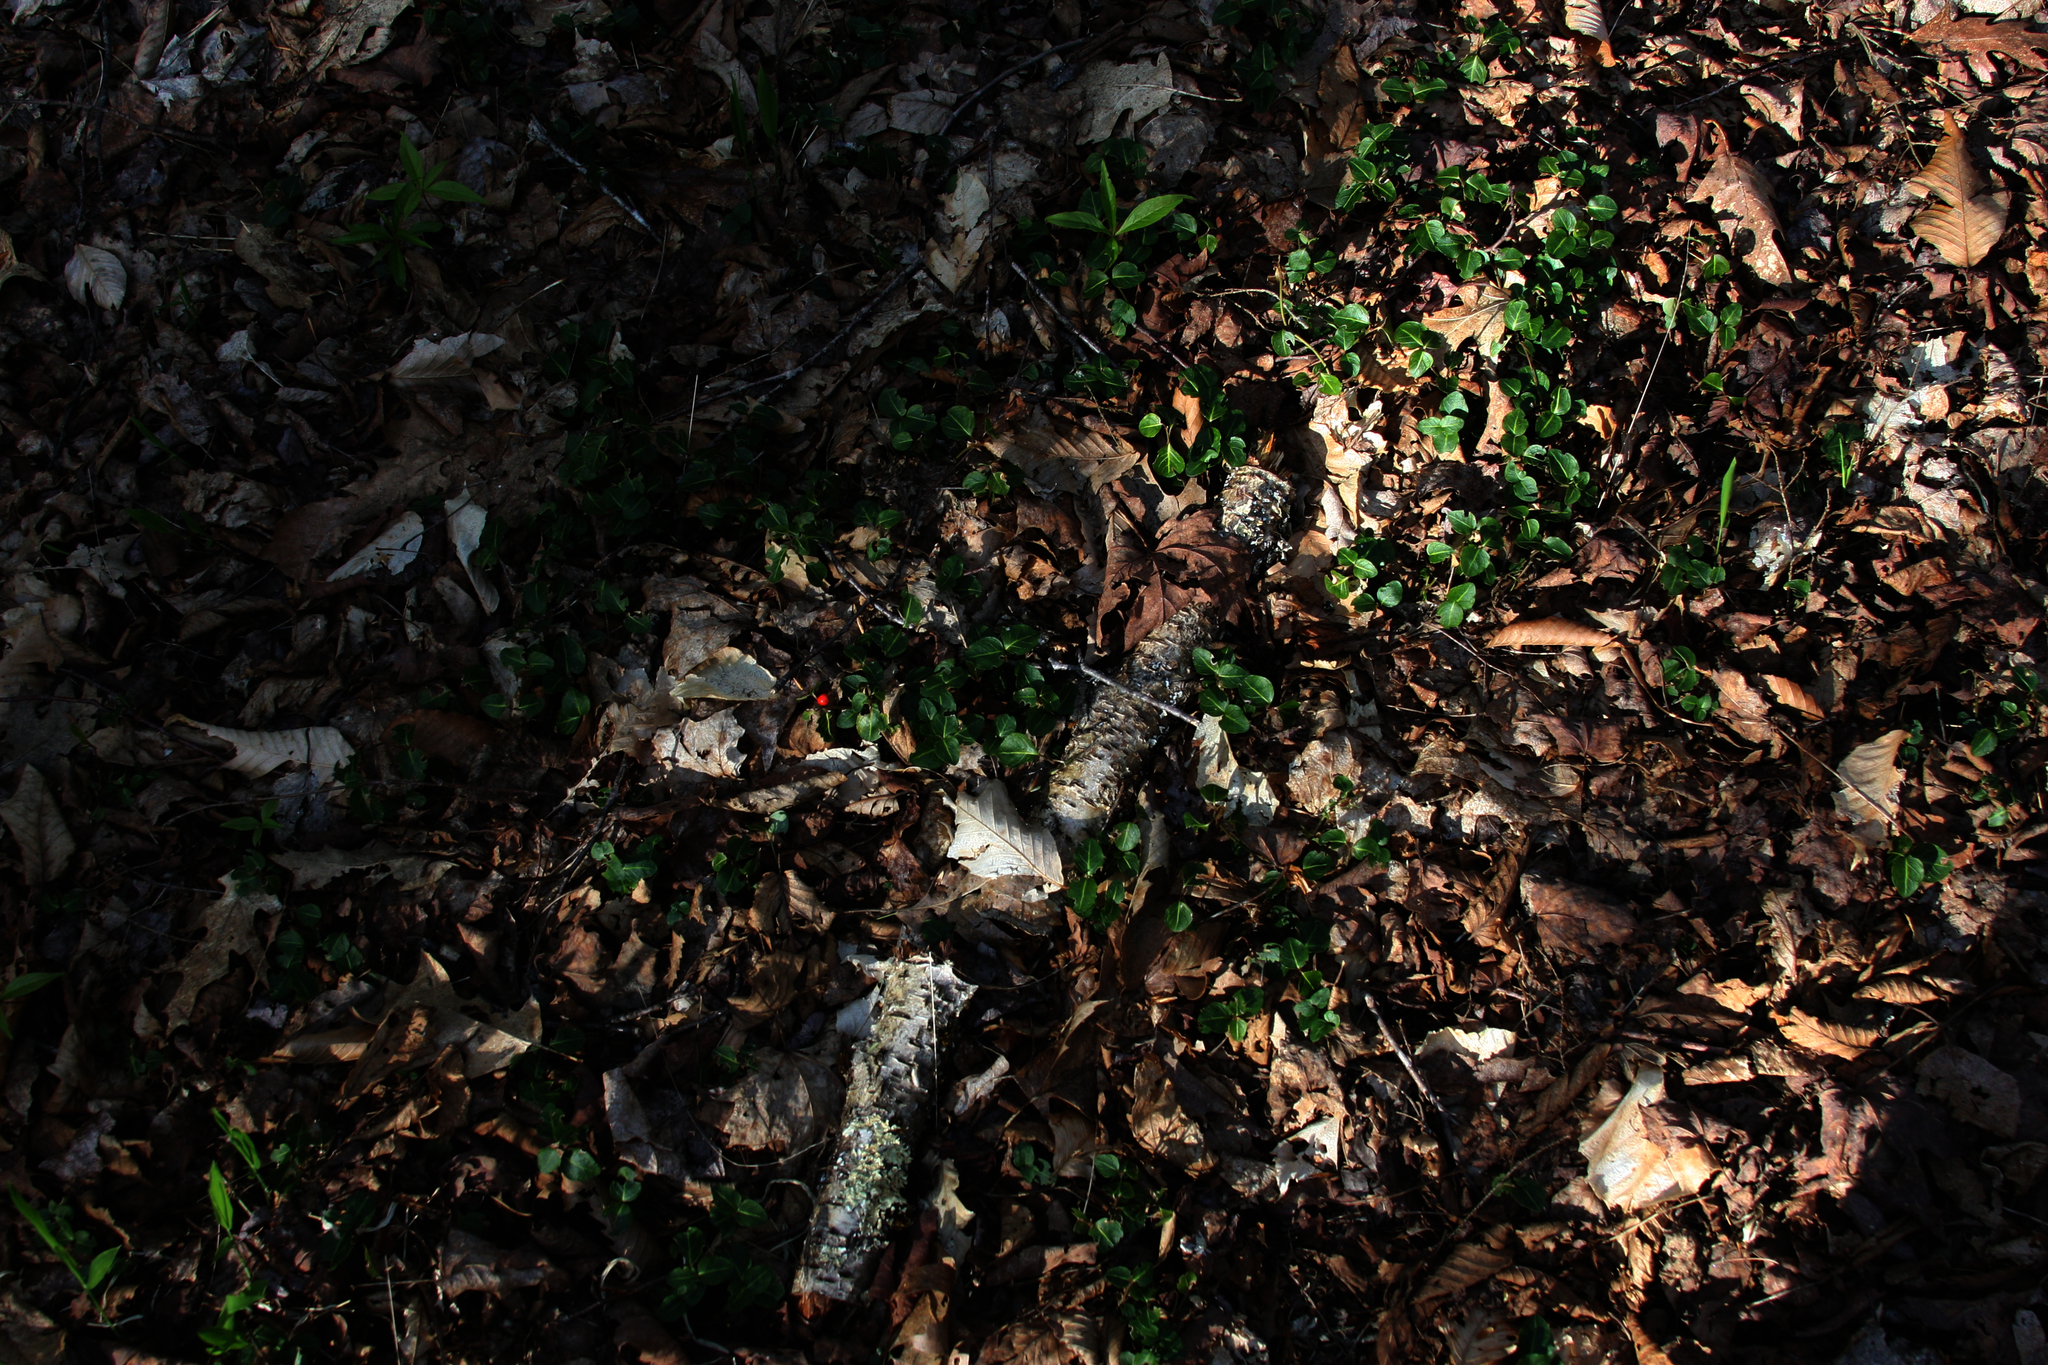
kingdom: Plantae
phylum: Tracheophyta
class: Magnoliopsida
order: Gentianales
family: Rubiaceae
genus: Mitchella
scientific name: Mitchella repens
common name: Partridge-berry
